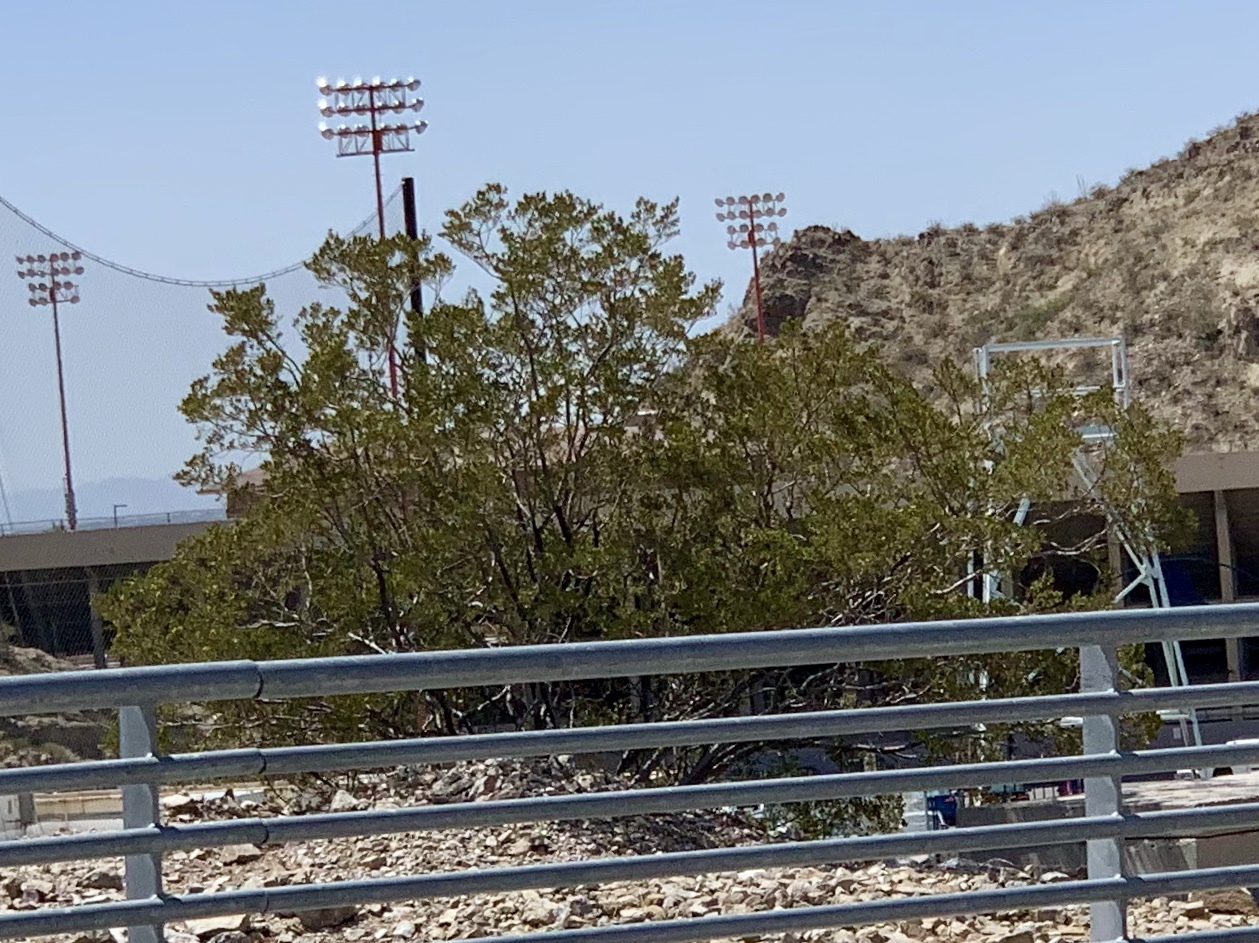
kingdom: Plantae
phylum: Tracheophyta
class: Magnoliopsida
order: Zygophyllales
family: Zygophyllaceae
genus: Larrea
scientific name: Larrea tridentata
